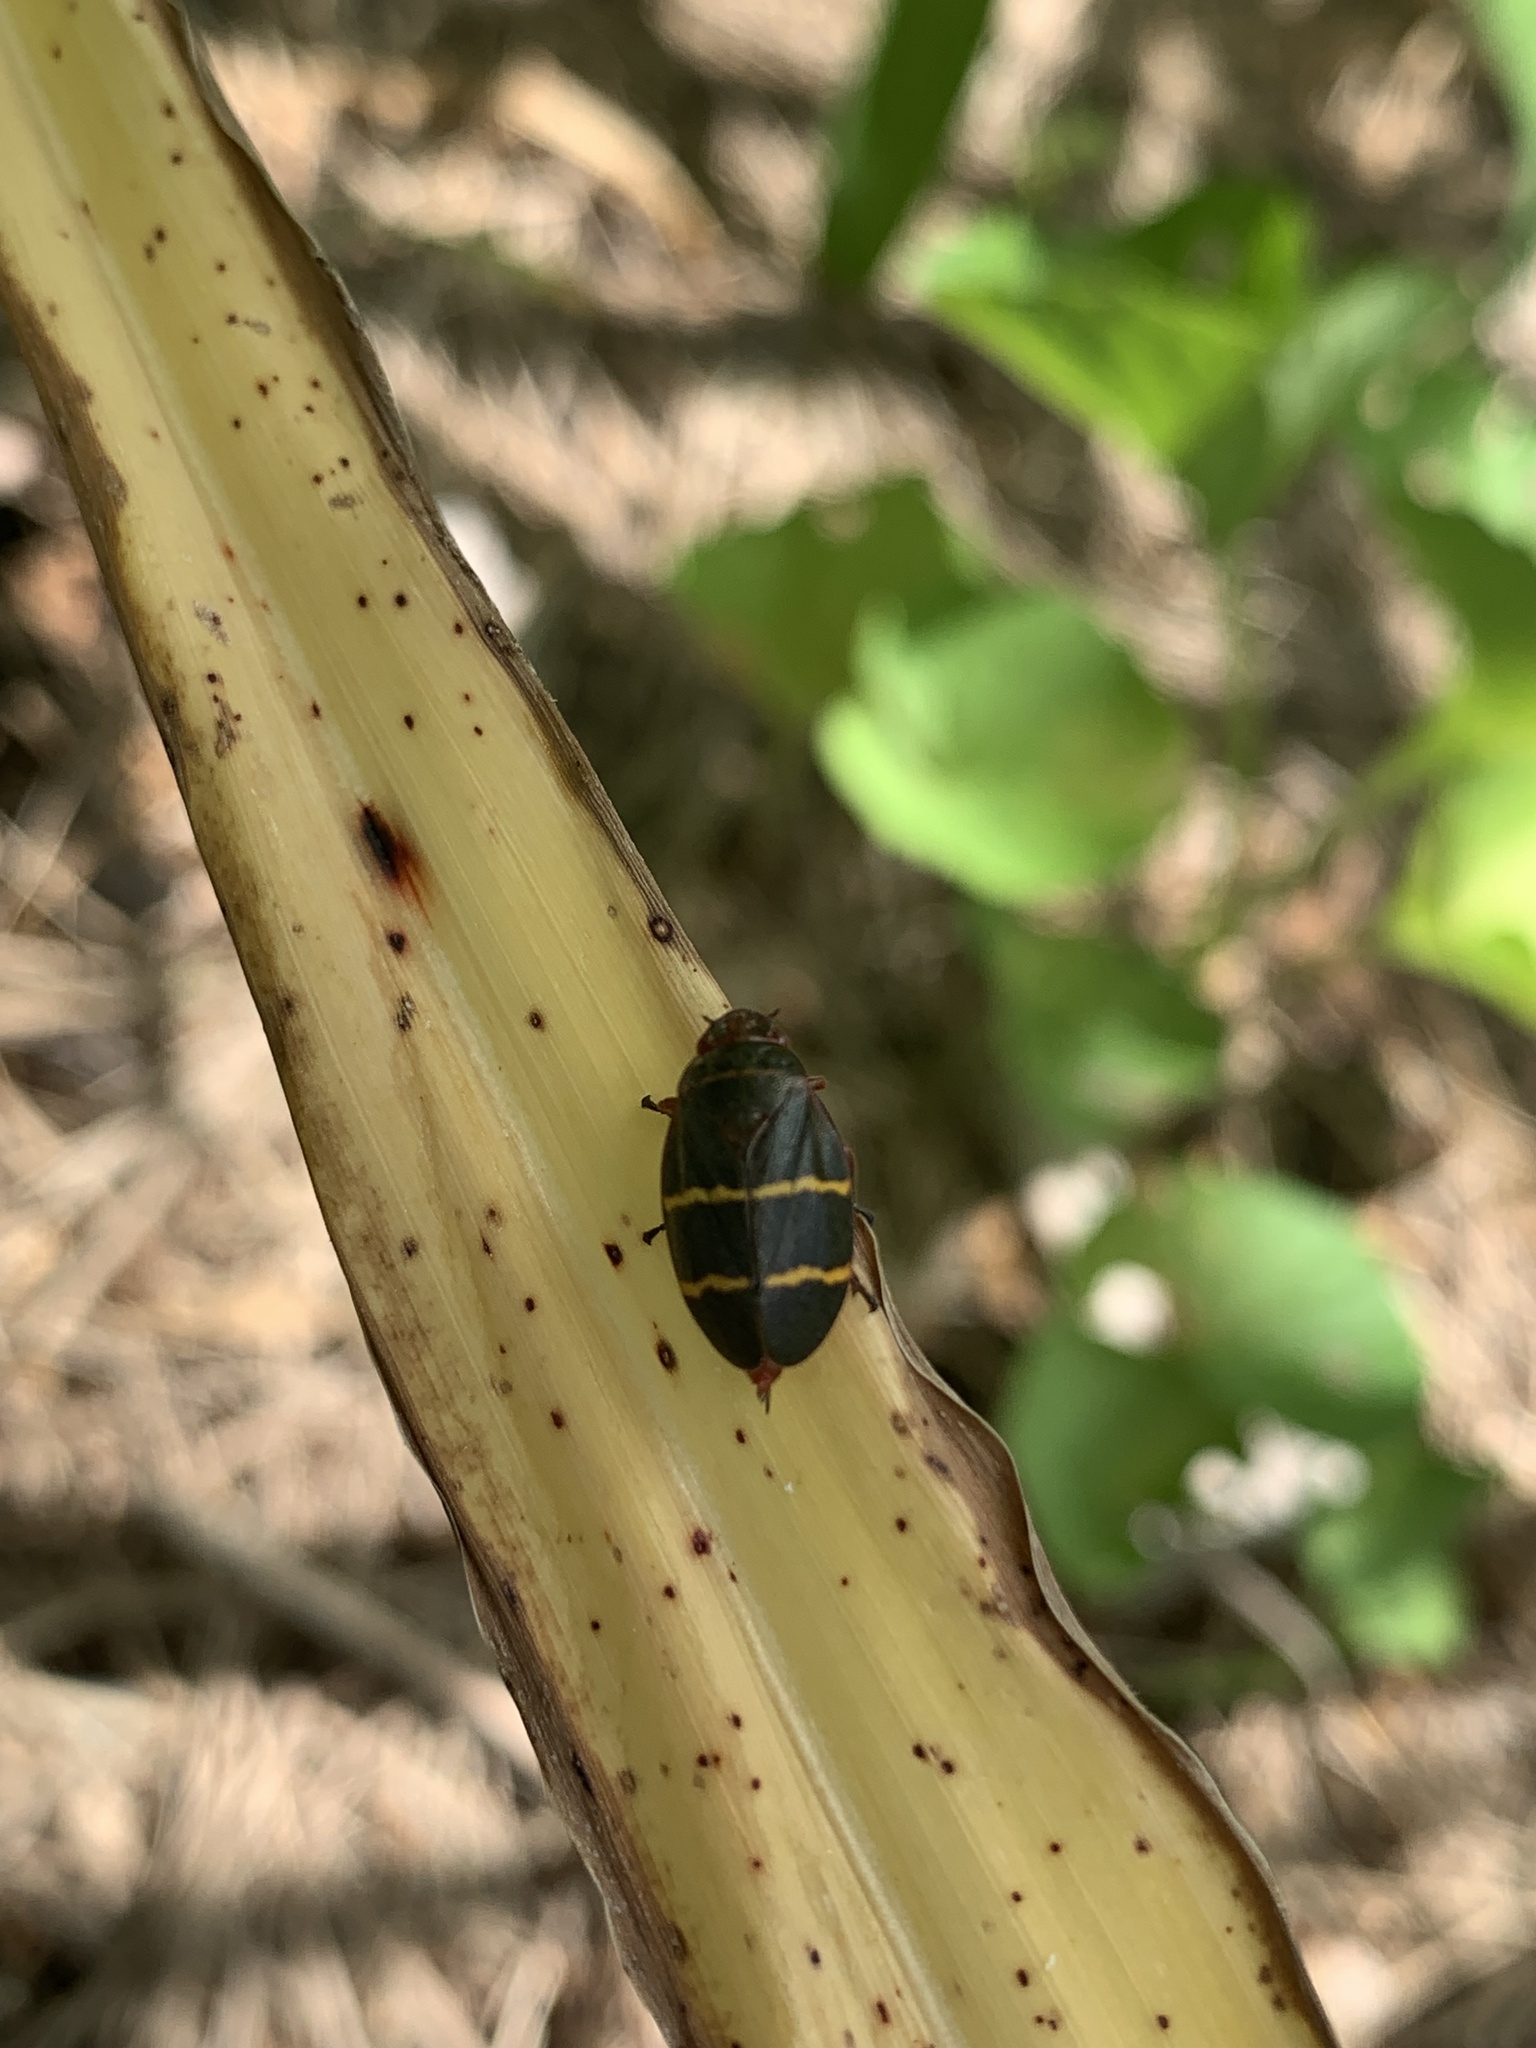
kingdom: Animalia
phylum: Arthropoda
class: Insecta
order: Hemiptera
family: Cercopidae
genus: Prosapia
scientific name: Prosapia bicincta
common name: Twolined spittlebug
